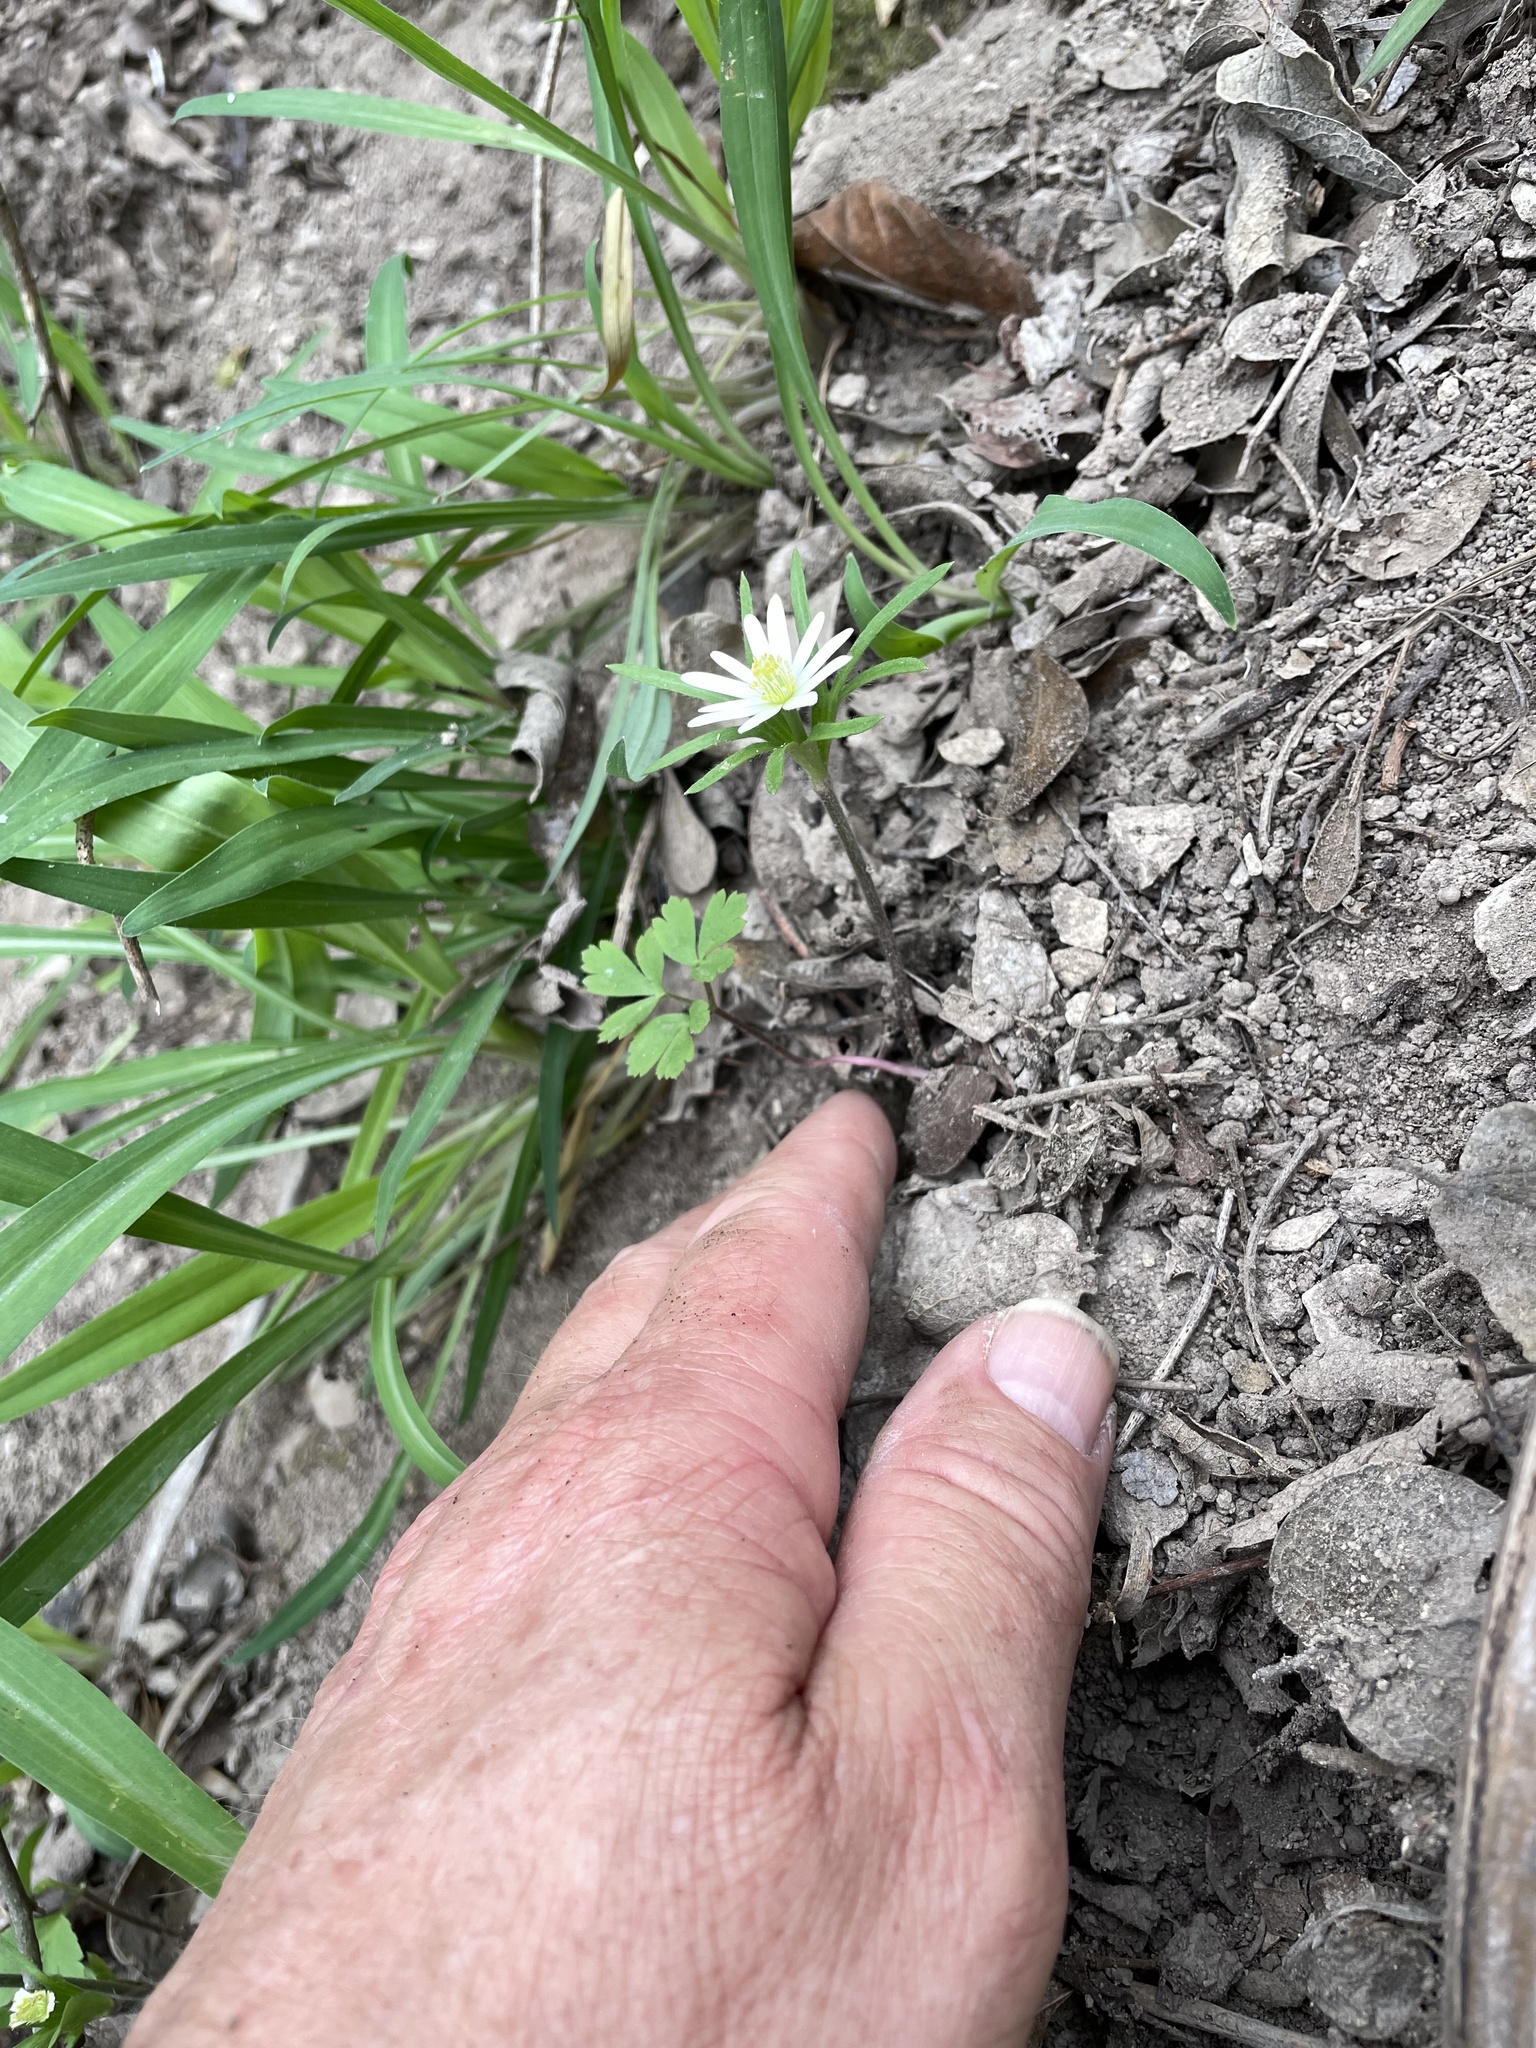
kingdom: Plantae
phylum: Tracheophyta
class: Magnoliopsida
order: Ranunculales
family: Ranunculaceae
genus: Anemone
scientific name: Anemone berlandieri
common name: Ten-petal anemone
